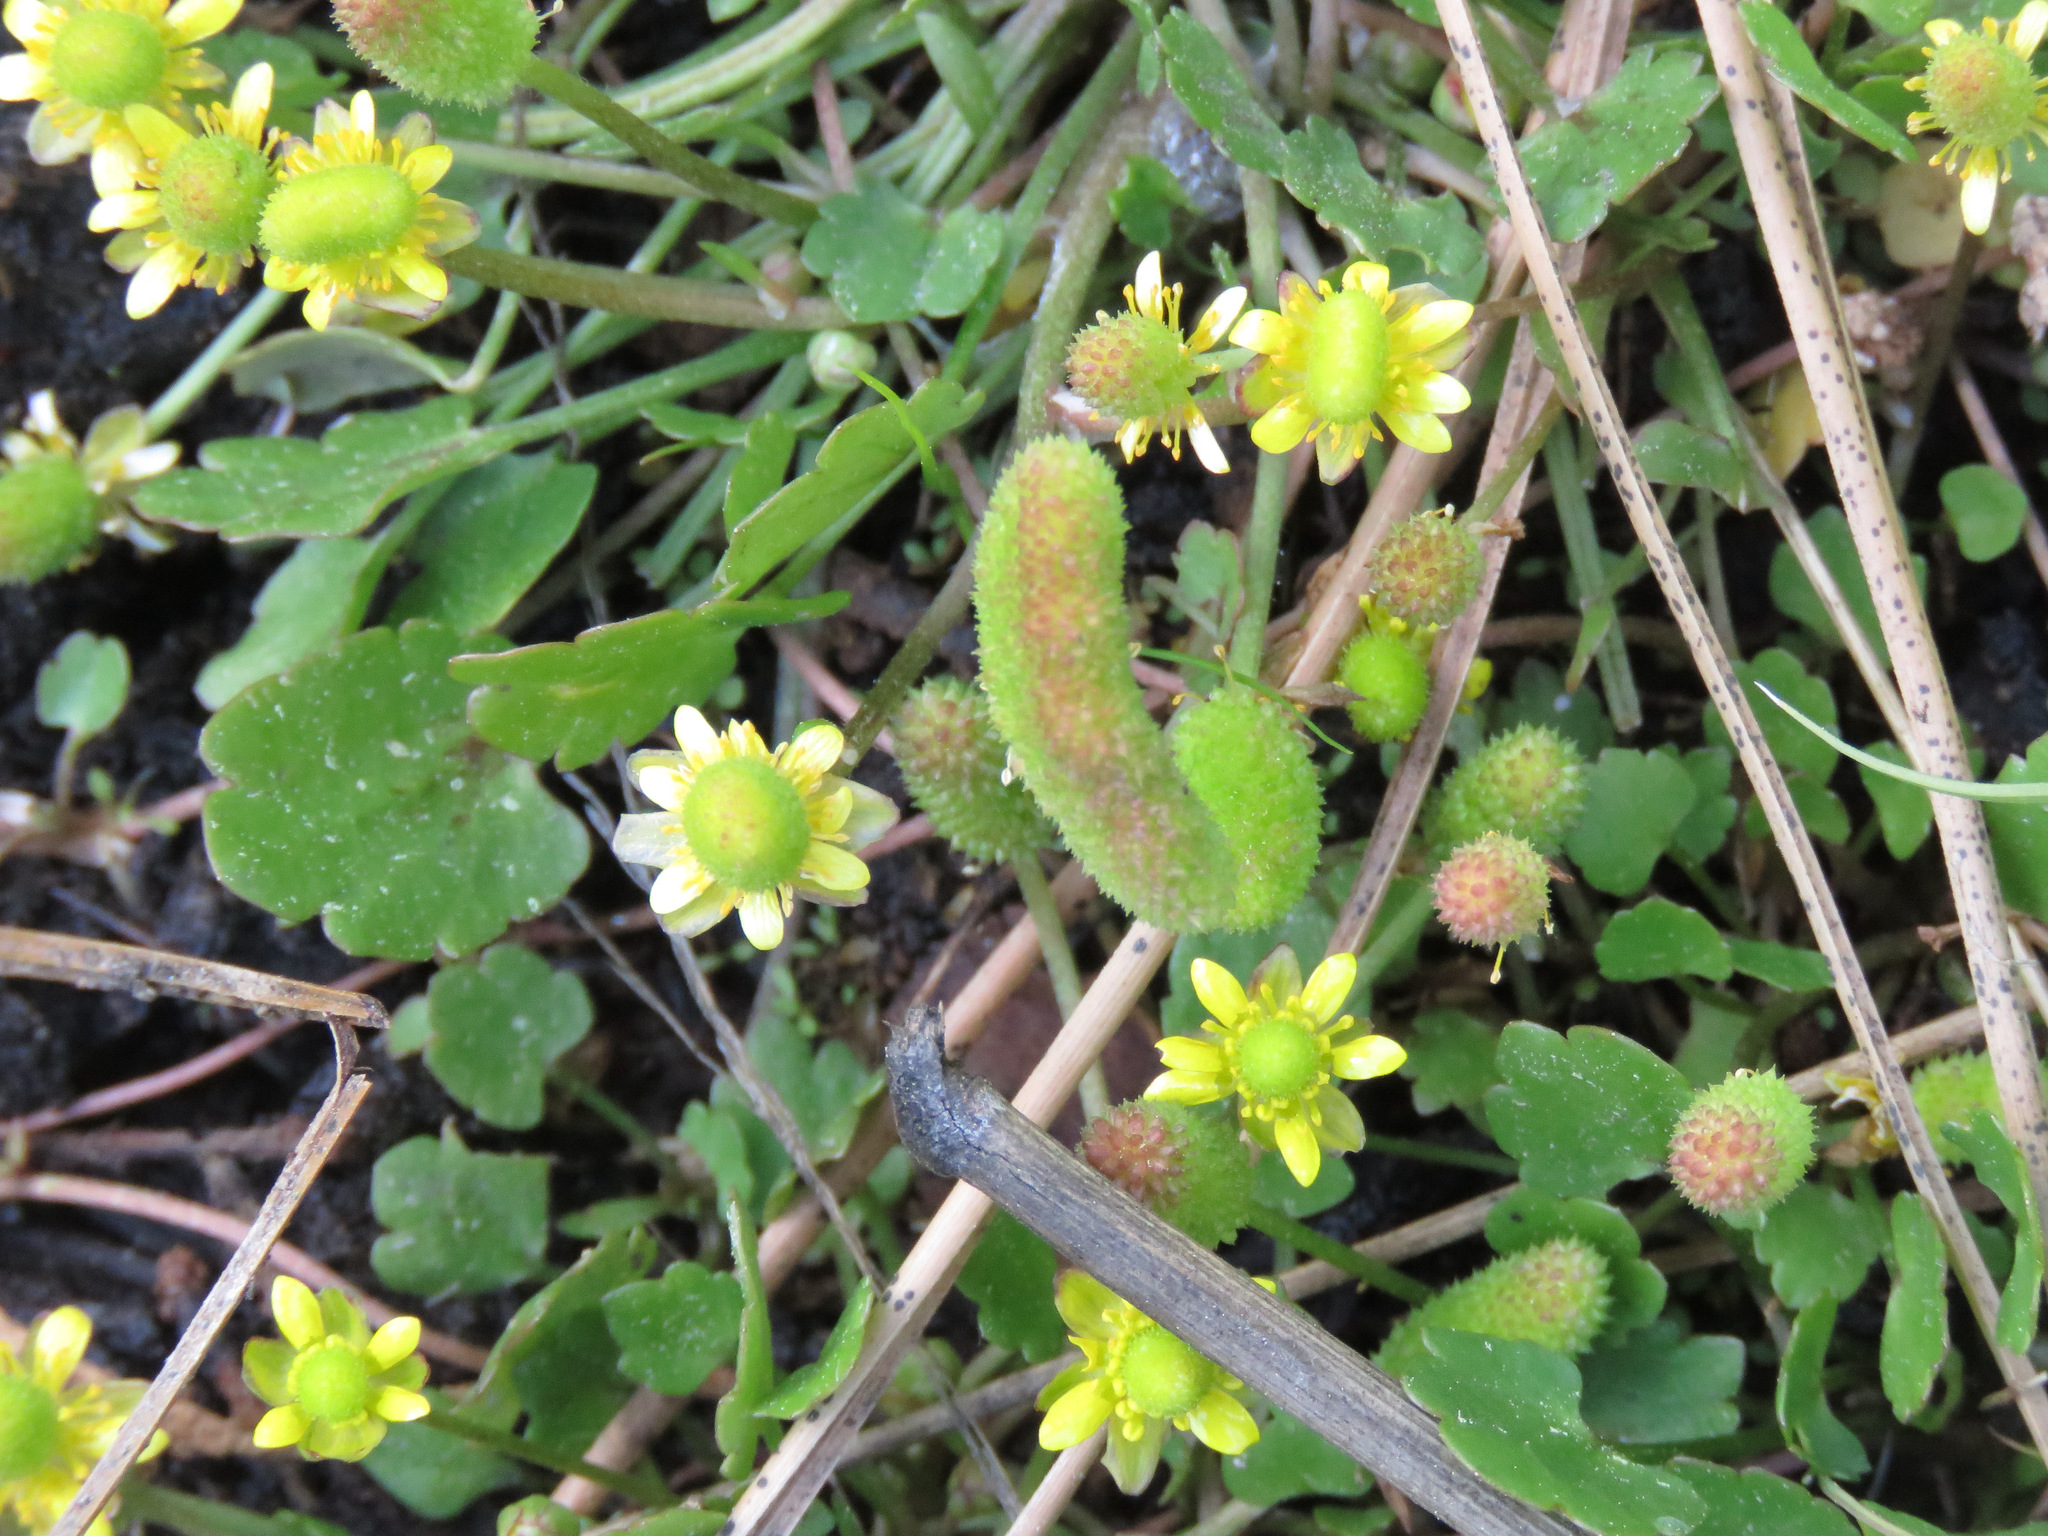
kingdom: Plantae
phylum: Tracheophyta
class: Magnoliopsida
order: Ranunculales
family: Ranunculaceae
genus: Halerpestes
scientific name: Halerpestes cymbalaria
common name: Seaside crowfoot
